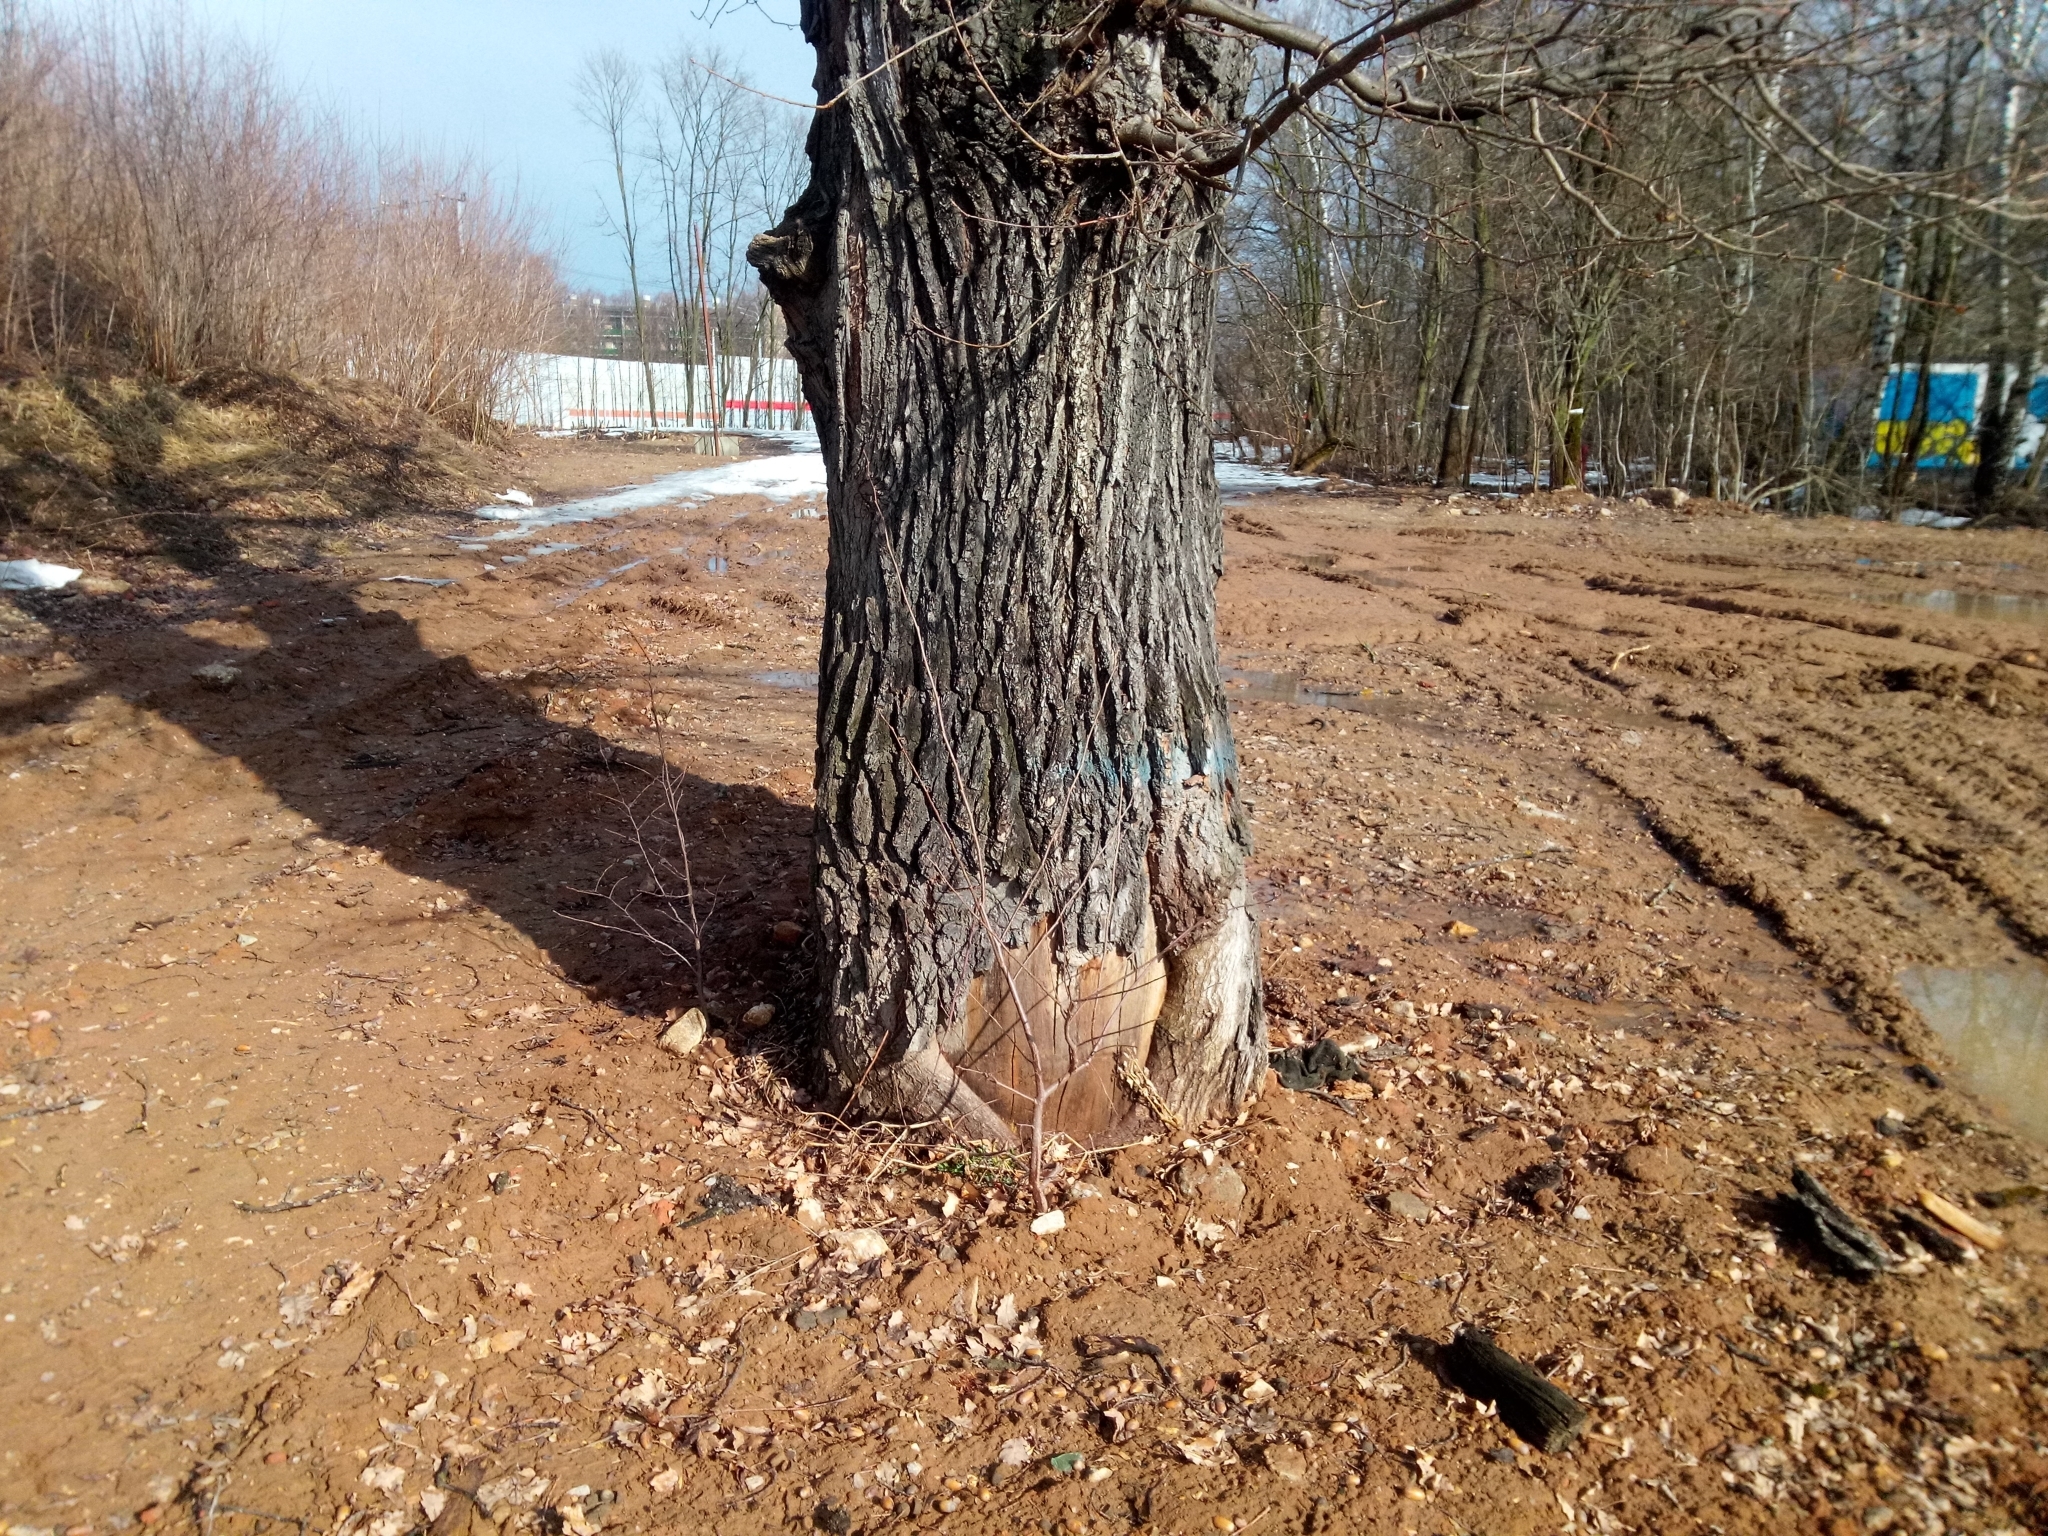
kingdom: Plantae
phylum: Tracheophyta
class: Magnoliopsida
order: Fagales
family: Fagaceae
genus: Quercus
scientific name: Quercus robur
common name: Pedunculate oak
